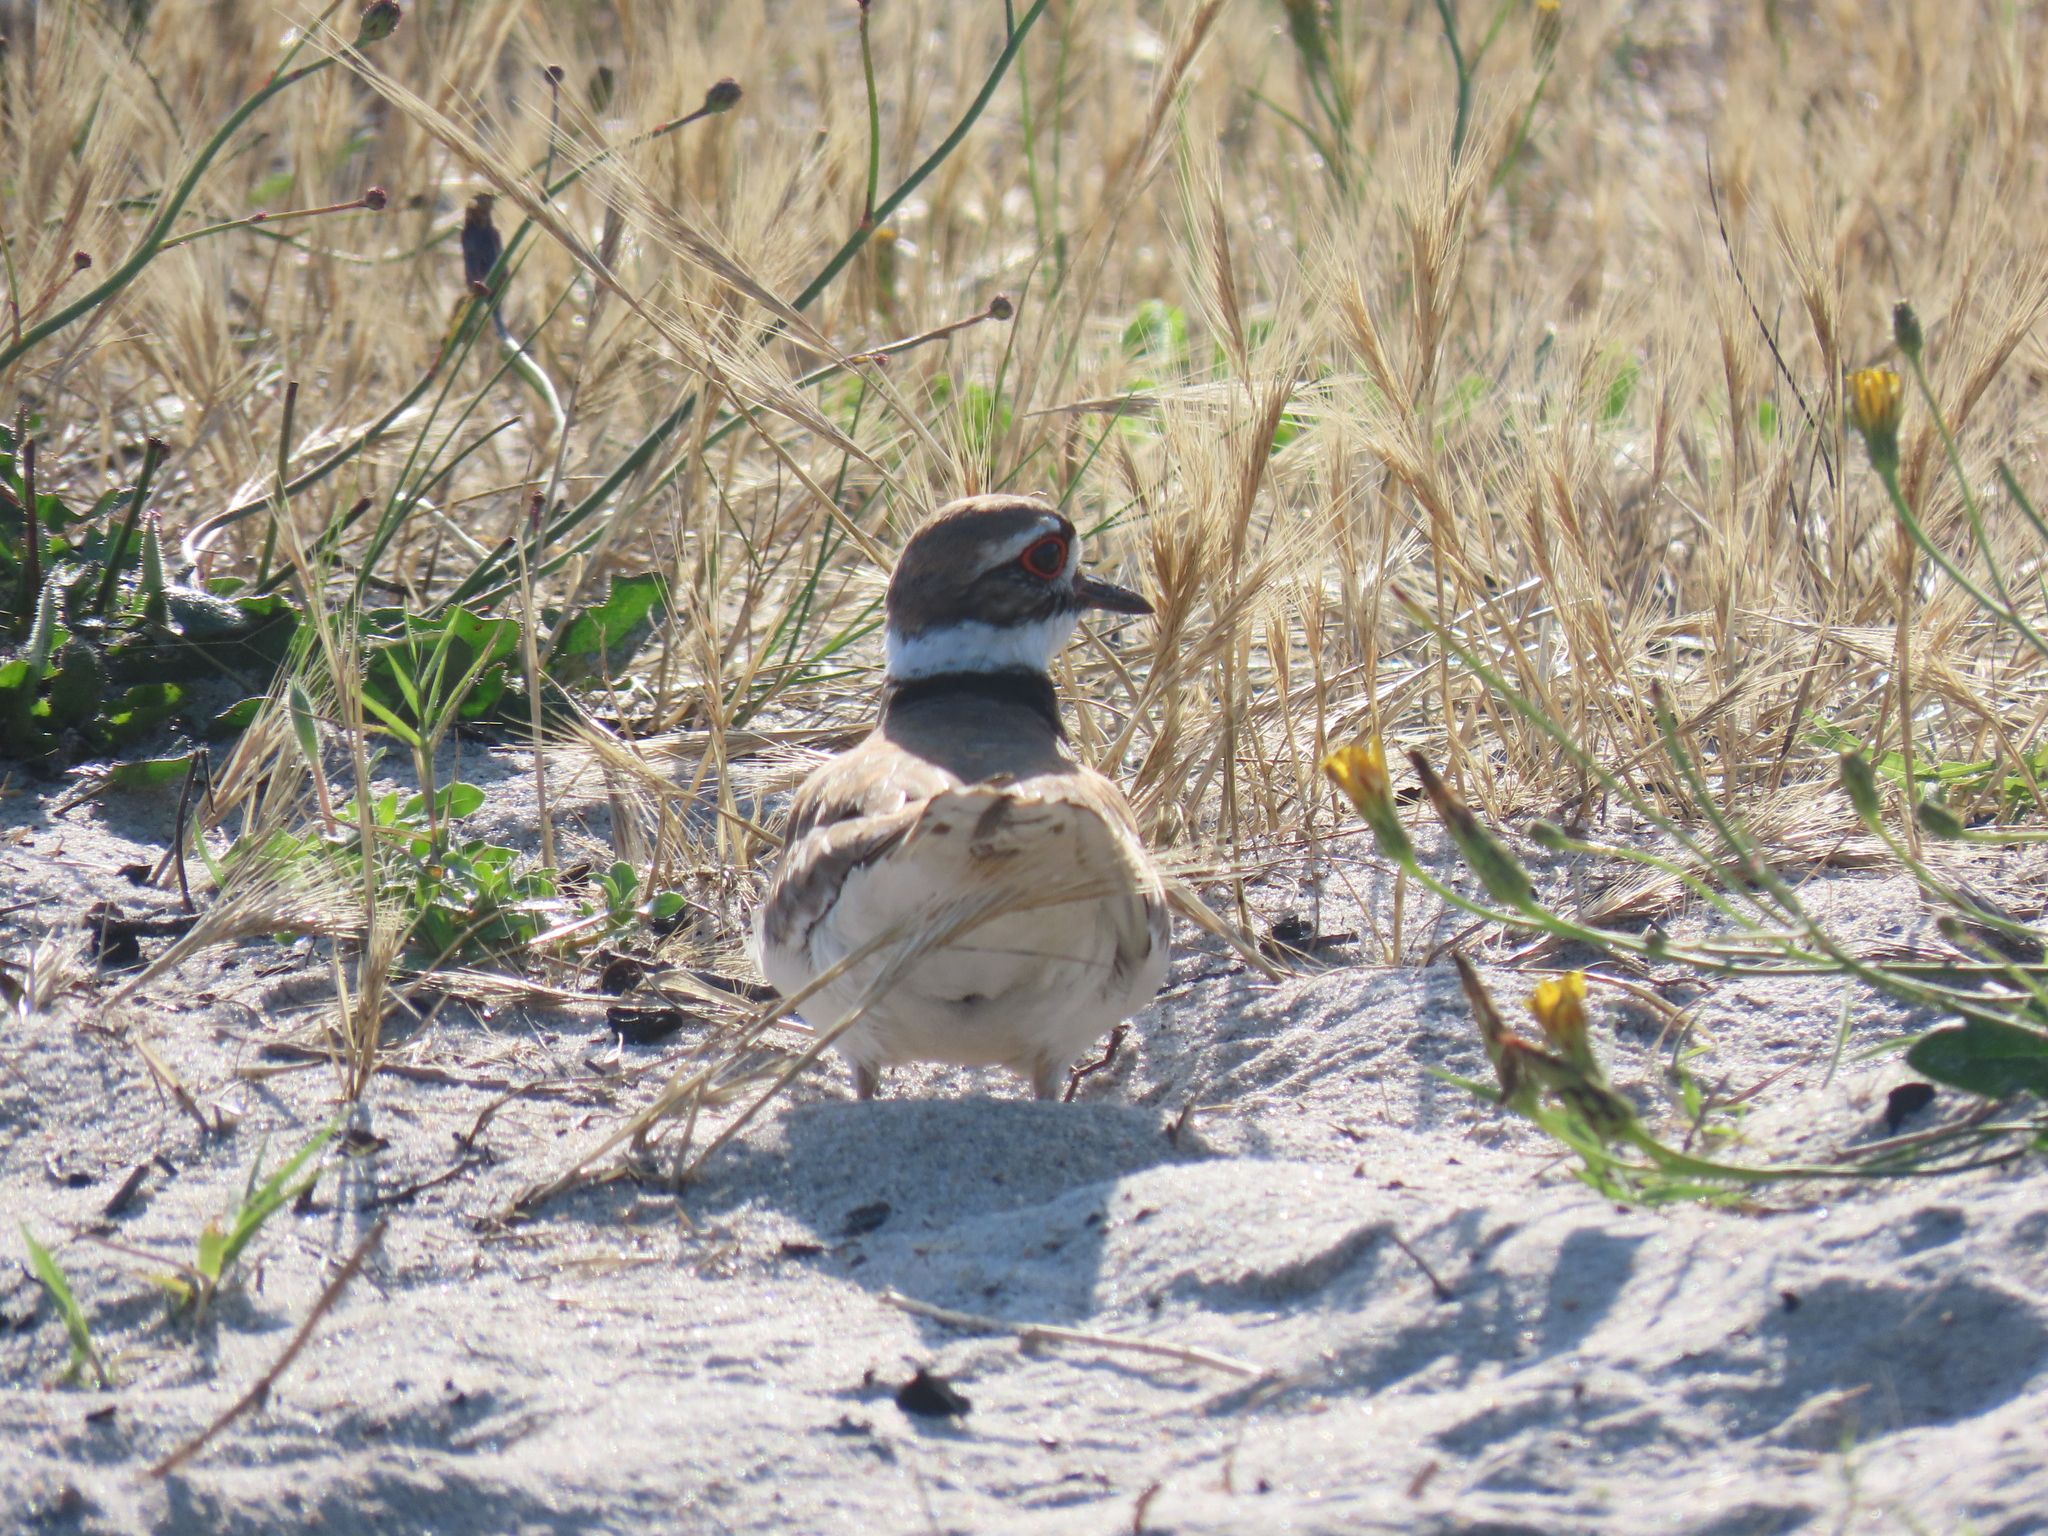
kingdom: Animalia
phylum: Chordata
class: Aves
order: Charadriiformes
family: Charadriidae
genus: Charadrius
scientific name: Charadrius vociferus
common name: Killdeer
